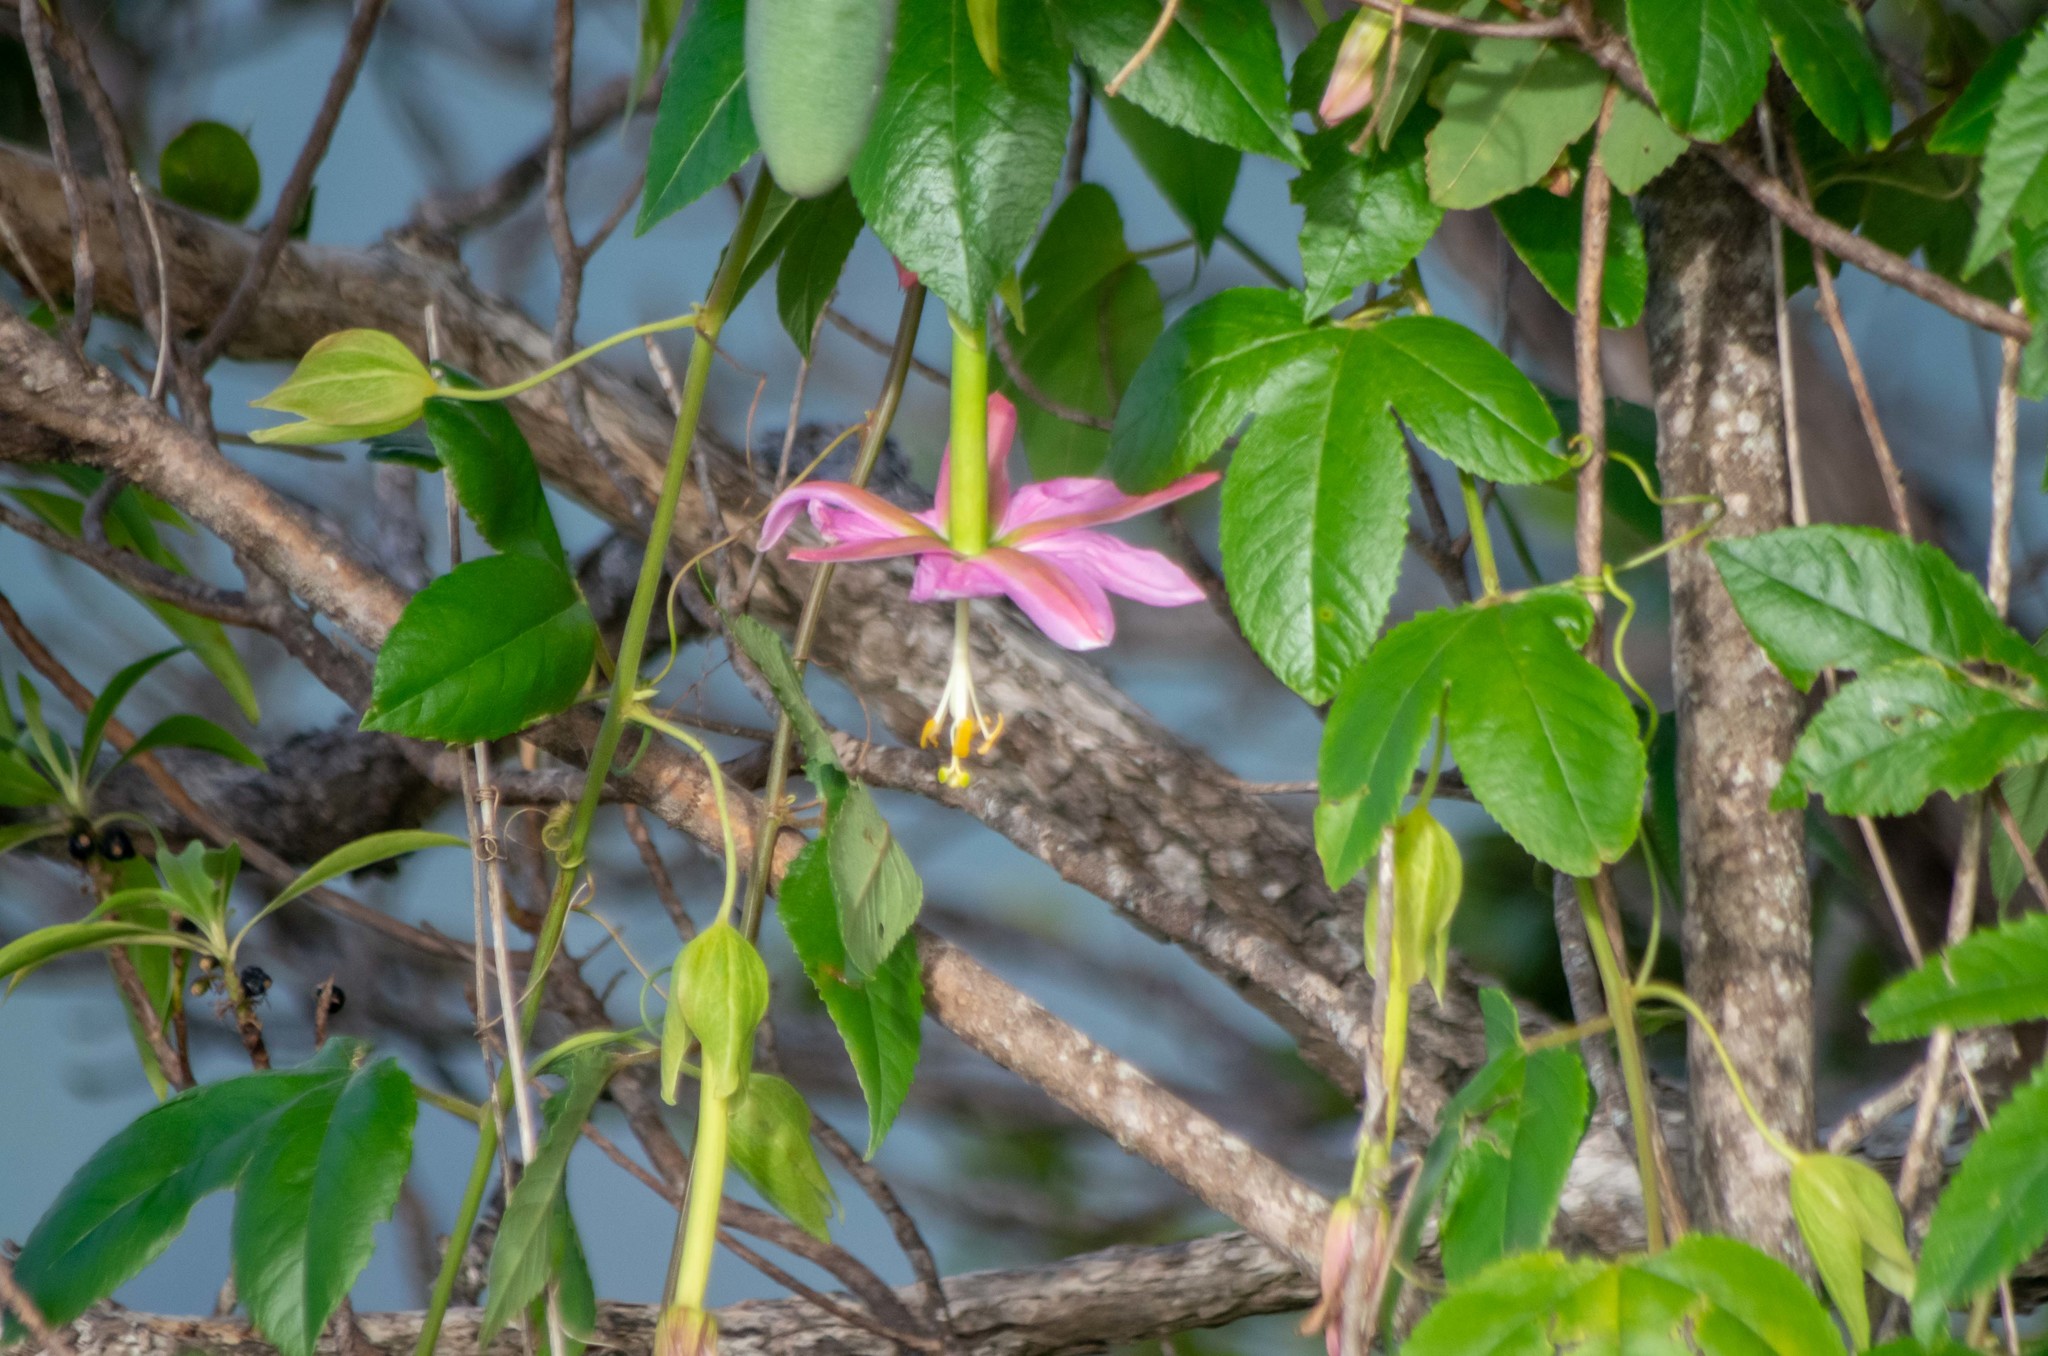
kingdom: Plantae
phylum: Tracheophyta
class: Magnoliopsida
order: Malpighiales
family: Passifloraceae
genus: Passiflora
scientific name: Passiflora tarminiana
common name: Banana poka
